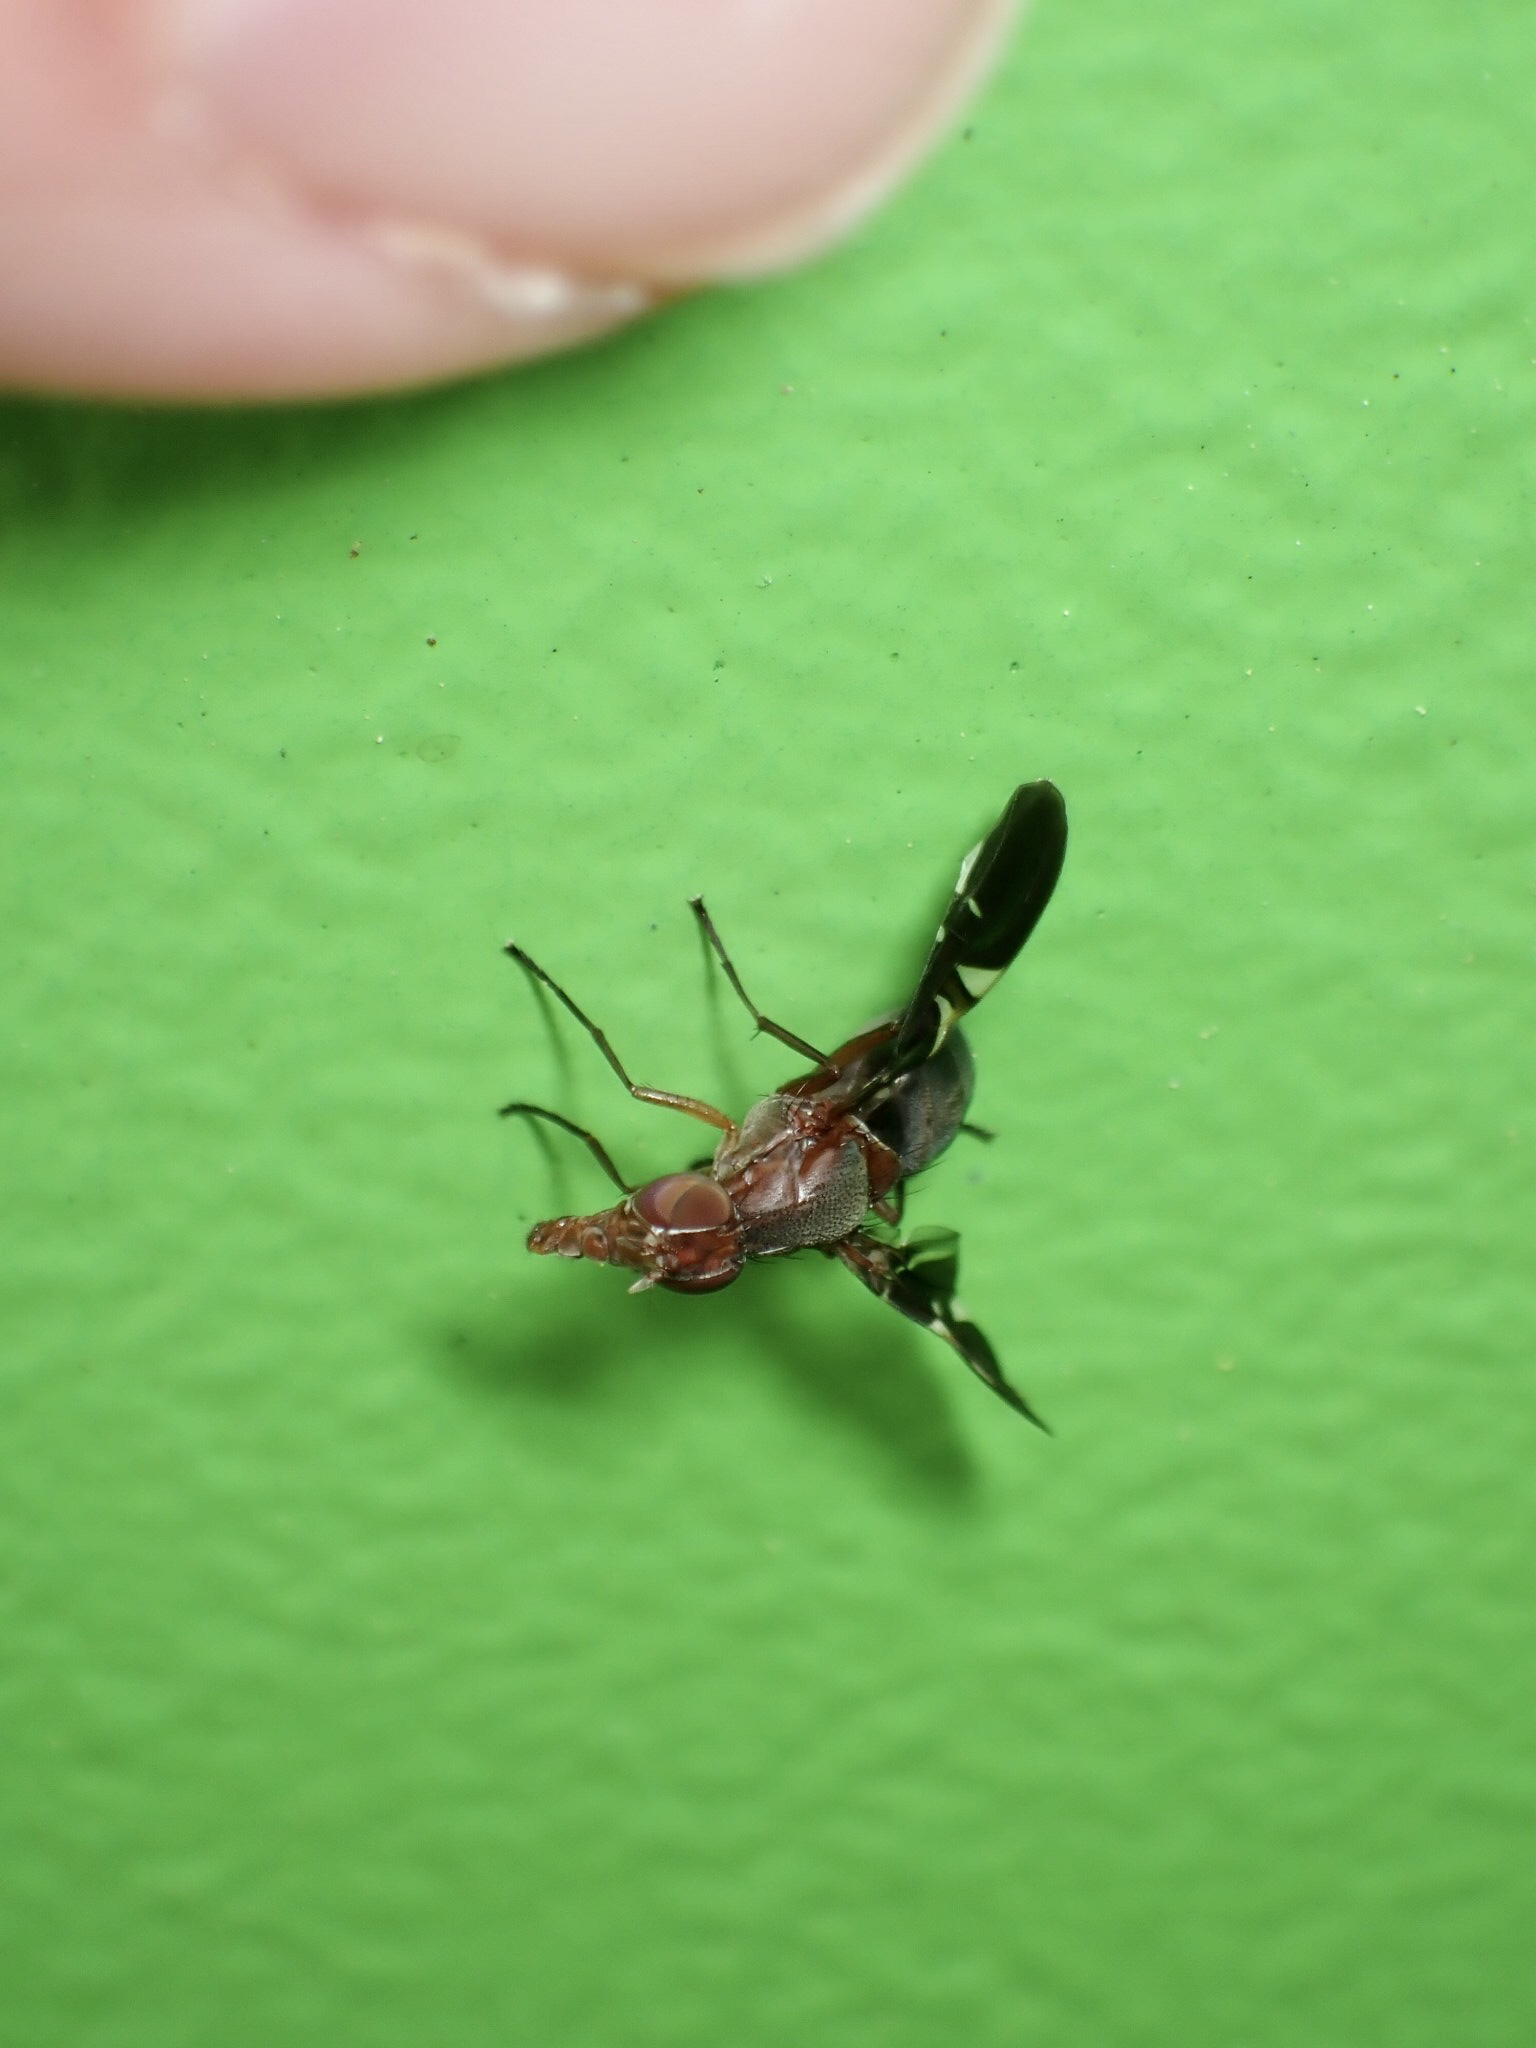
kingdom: Animalia
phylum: Arthropoda
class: Insecta
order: Diptera
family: Ulidiidae
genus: Delphinia
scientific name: Delphinia picta
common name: Common picture-winged fly
